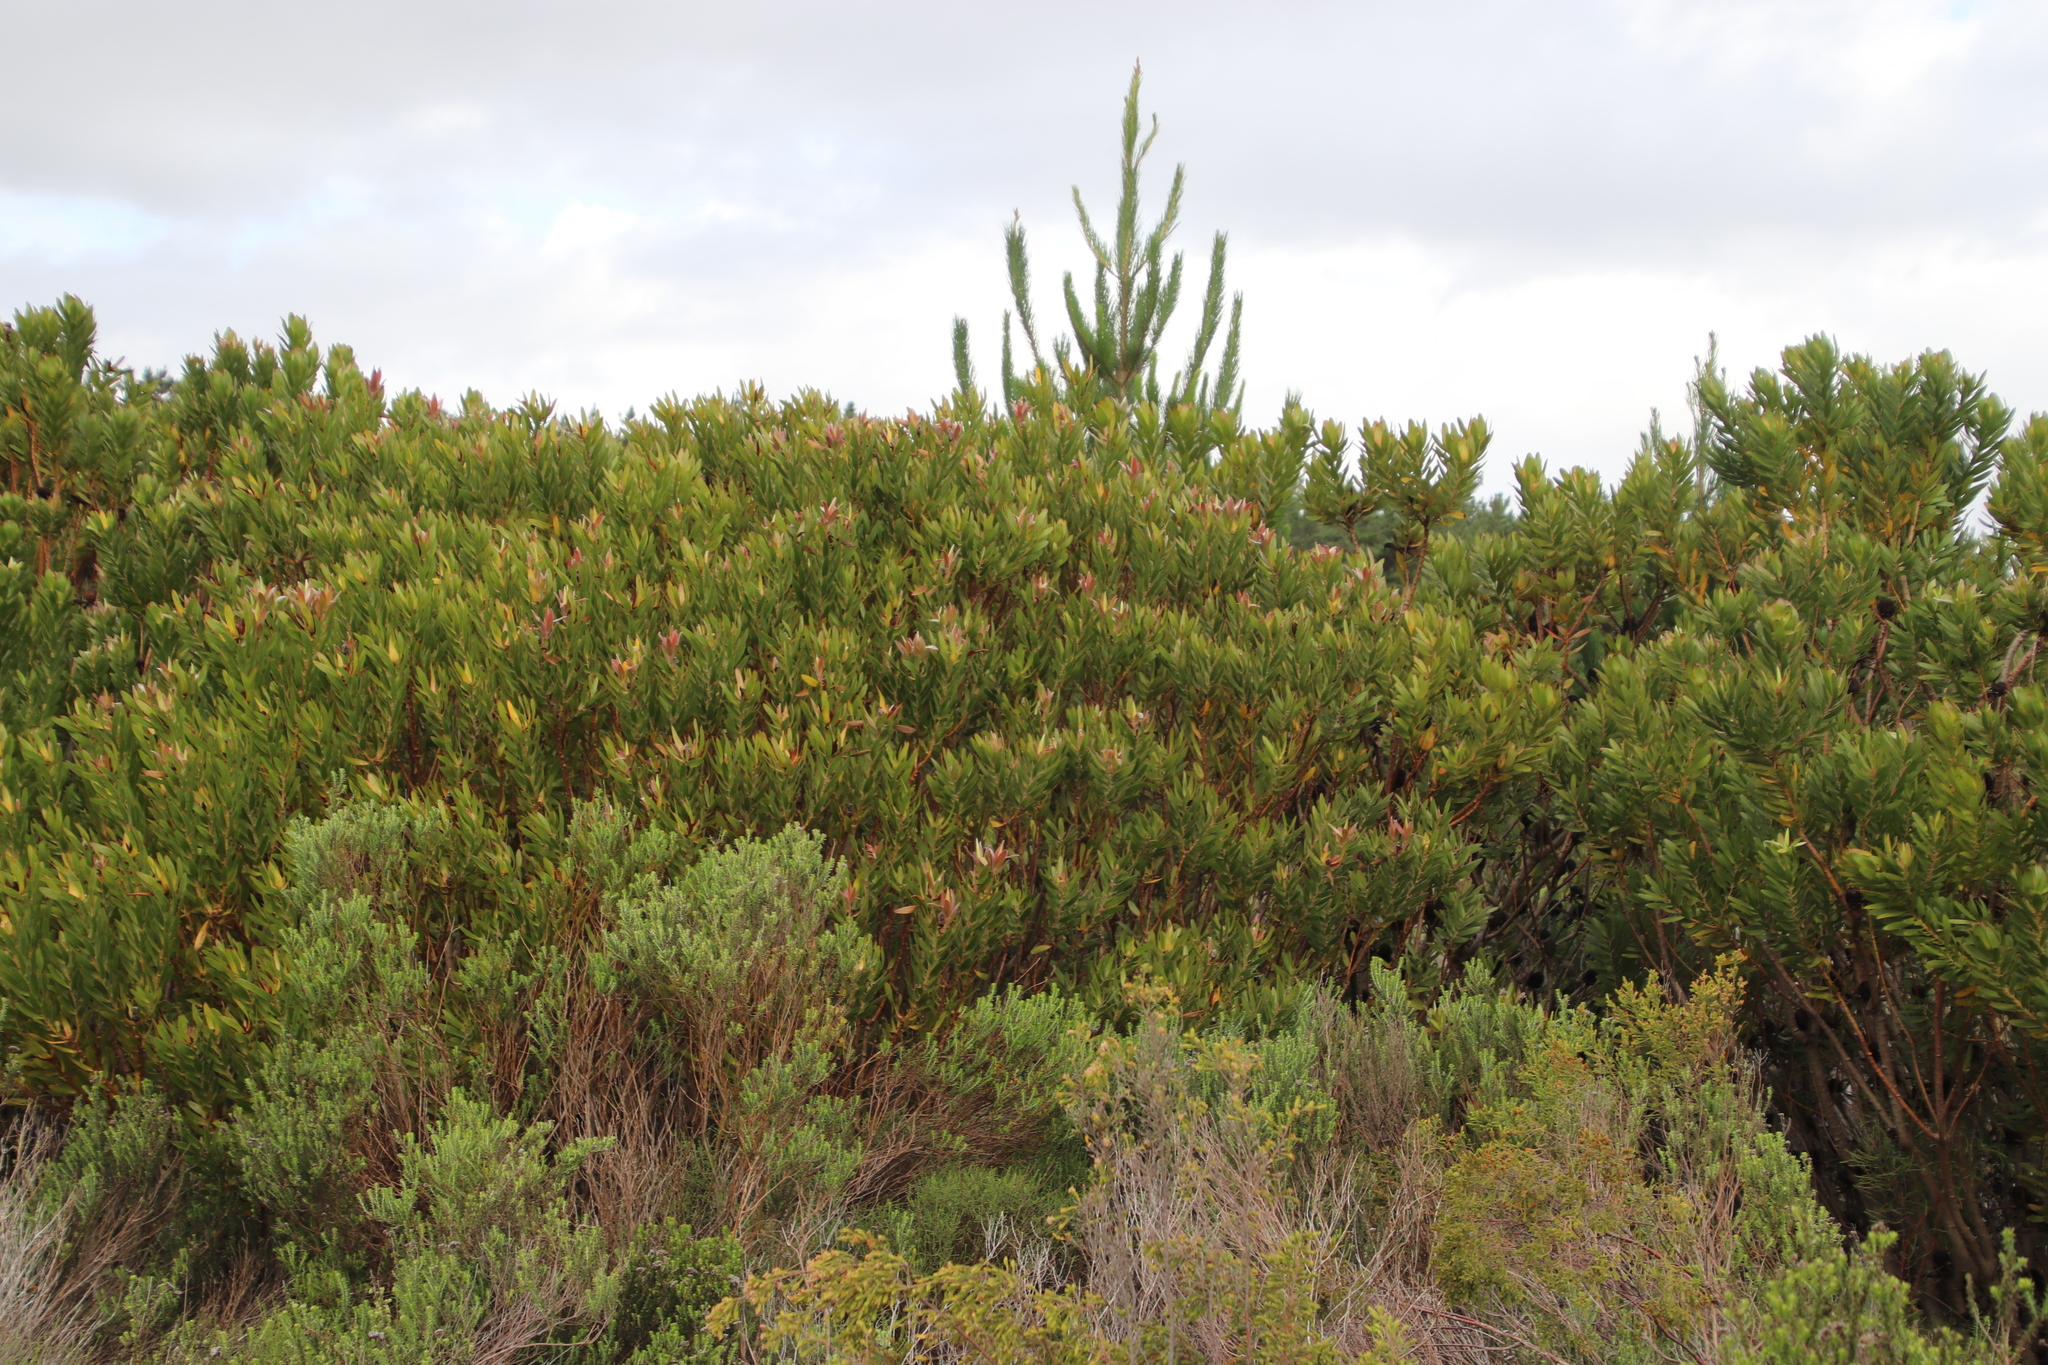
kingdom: Plantae
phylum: Tracheophyta
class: Magnoliopsida
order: Proteales
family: Proteaceae
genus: Leucadendron
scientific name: Leucadendron laureolum
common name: Golden sunshinebush
